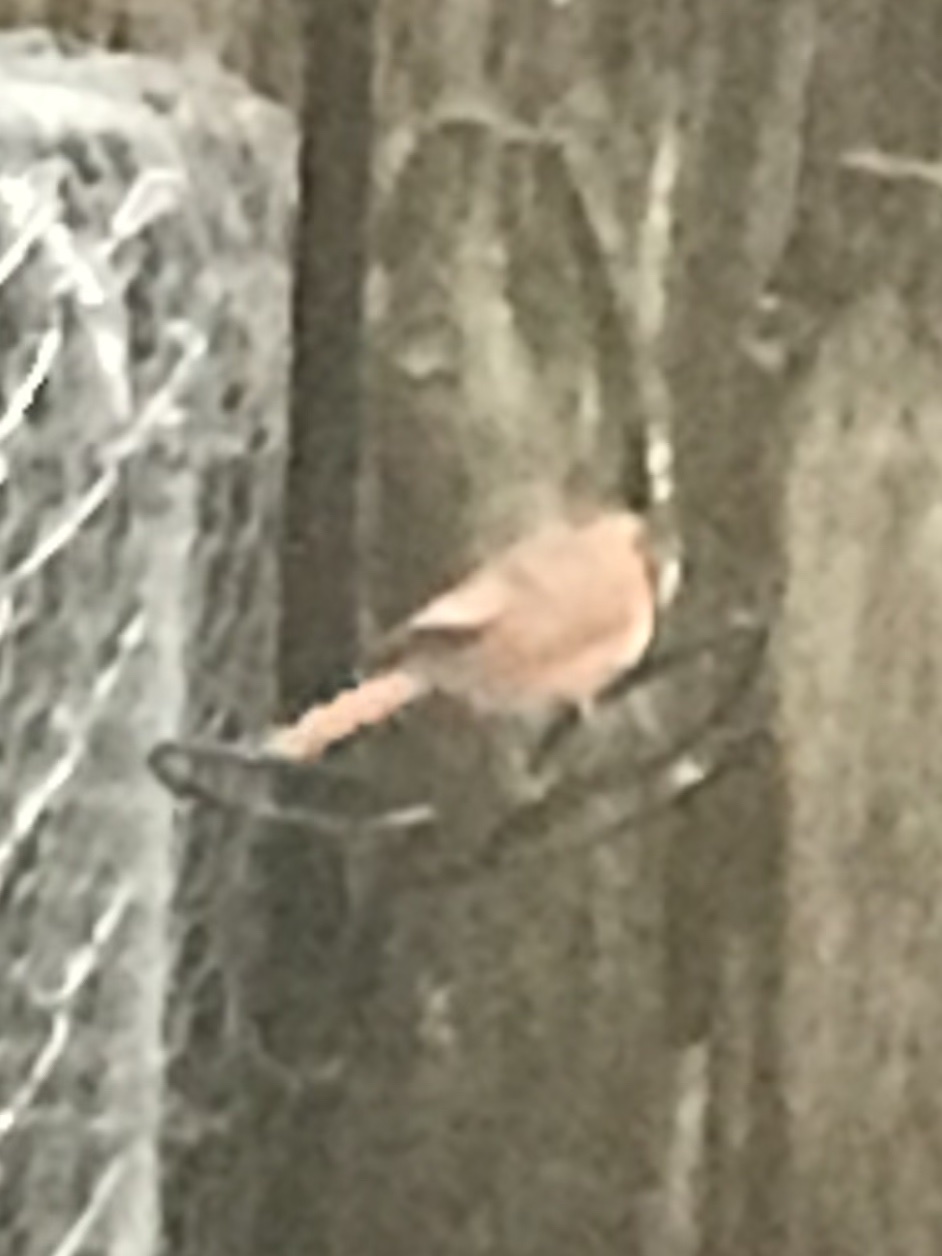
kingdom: Animalia
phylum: Chordata
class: Aves
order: Passeriformes
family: Cardinalidae
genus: Cardinalis
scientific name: Cardinalis cardinalis
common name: Northern cardinal
